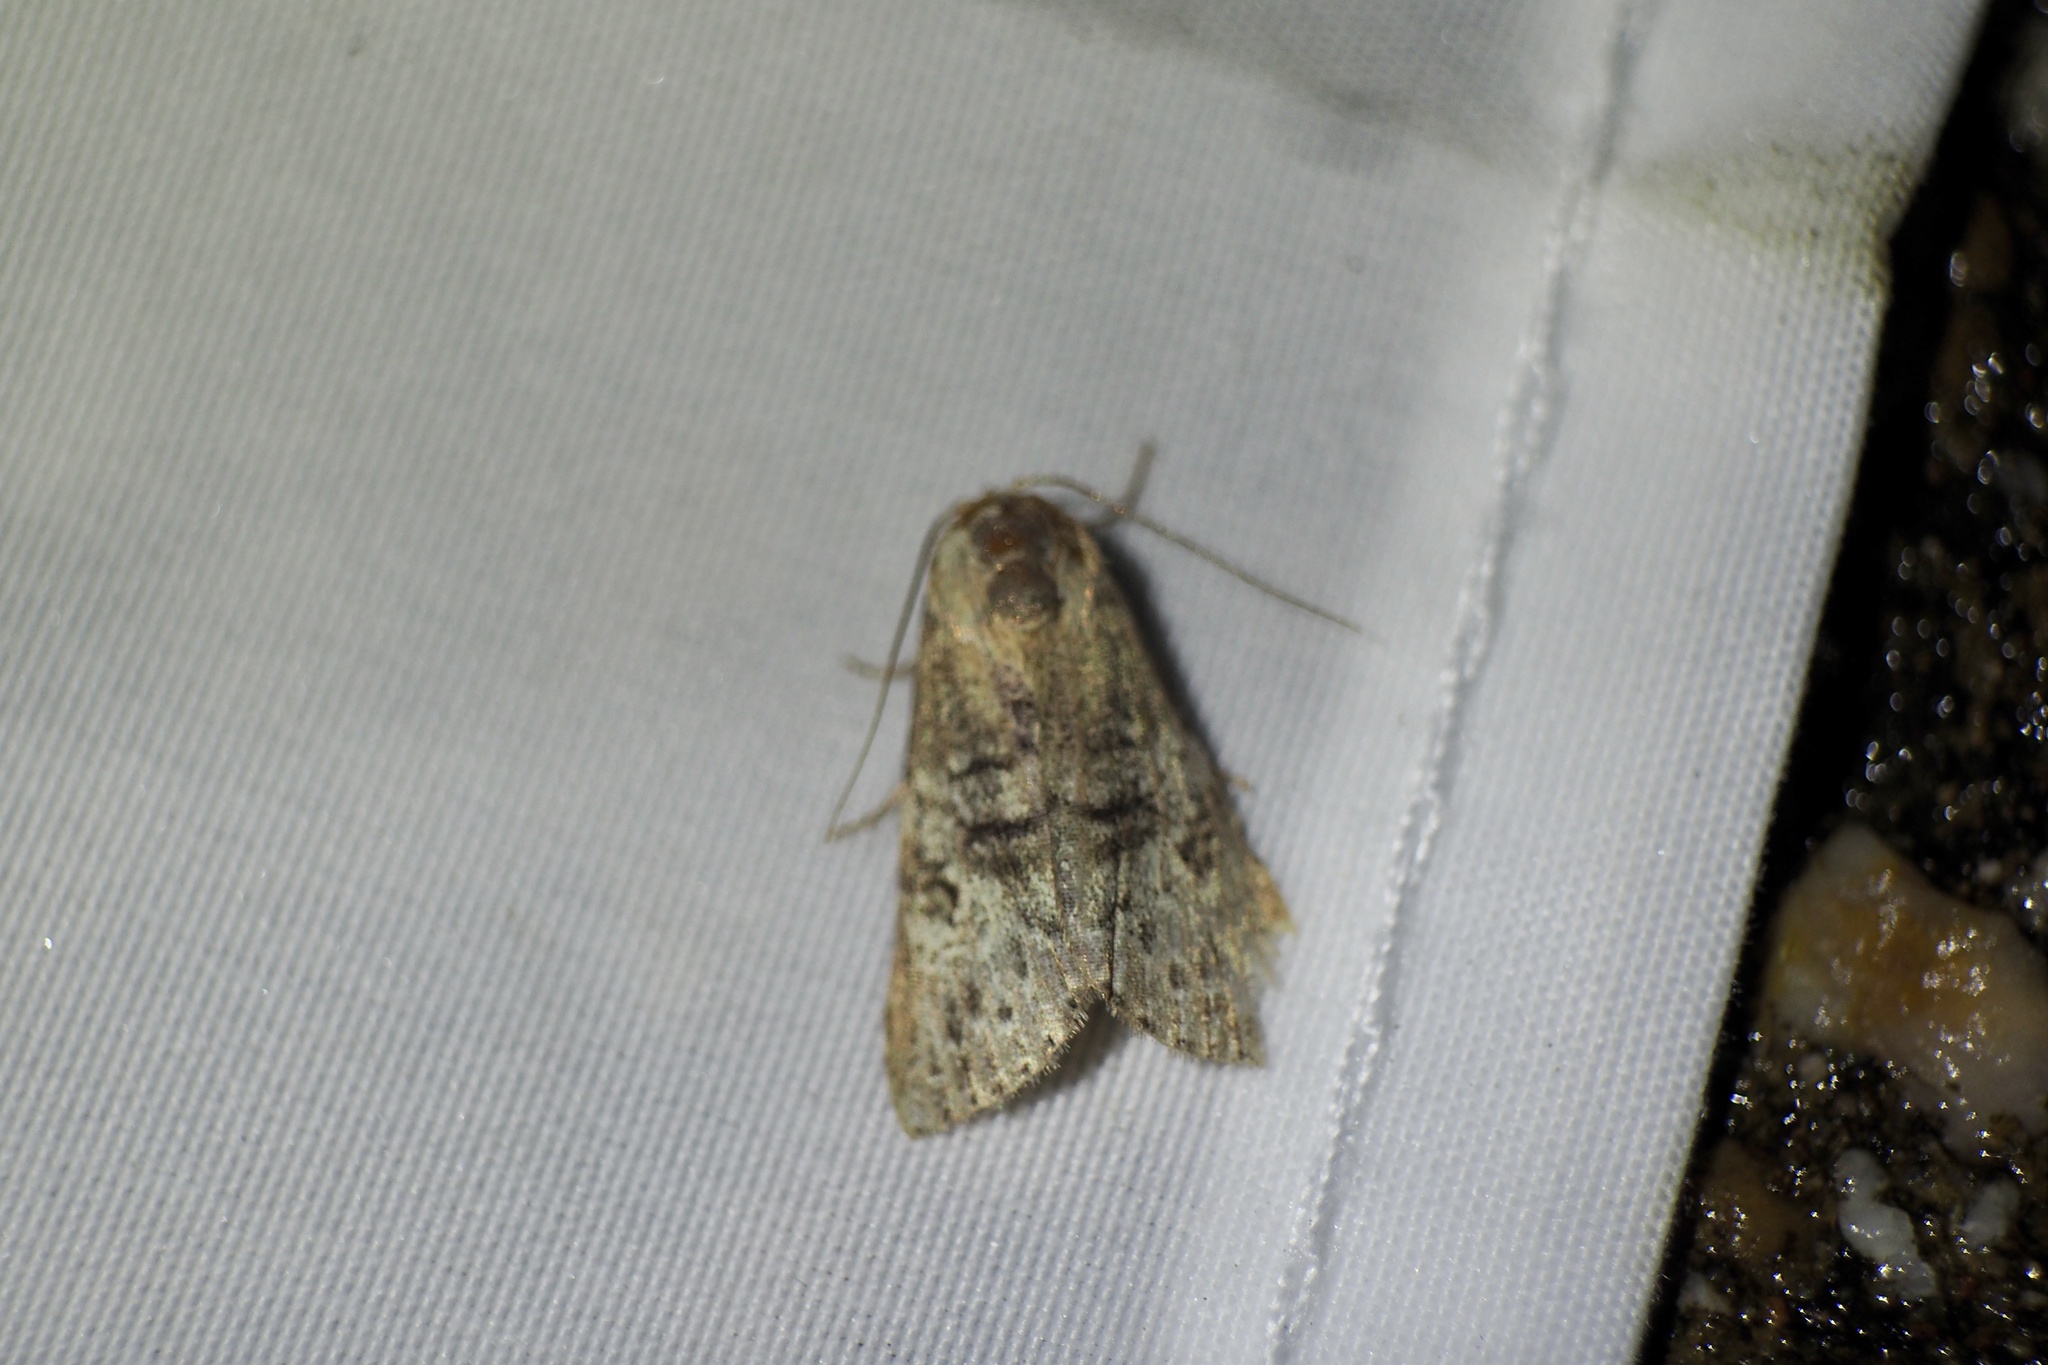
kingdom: Animalia
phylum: Arthropoda
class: Insecta
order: Lepidoptera
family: Erebidae
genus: Chorsia
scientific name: Chorsia mollicula
